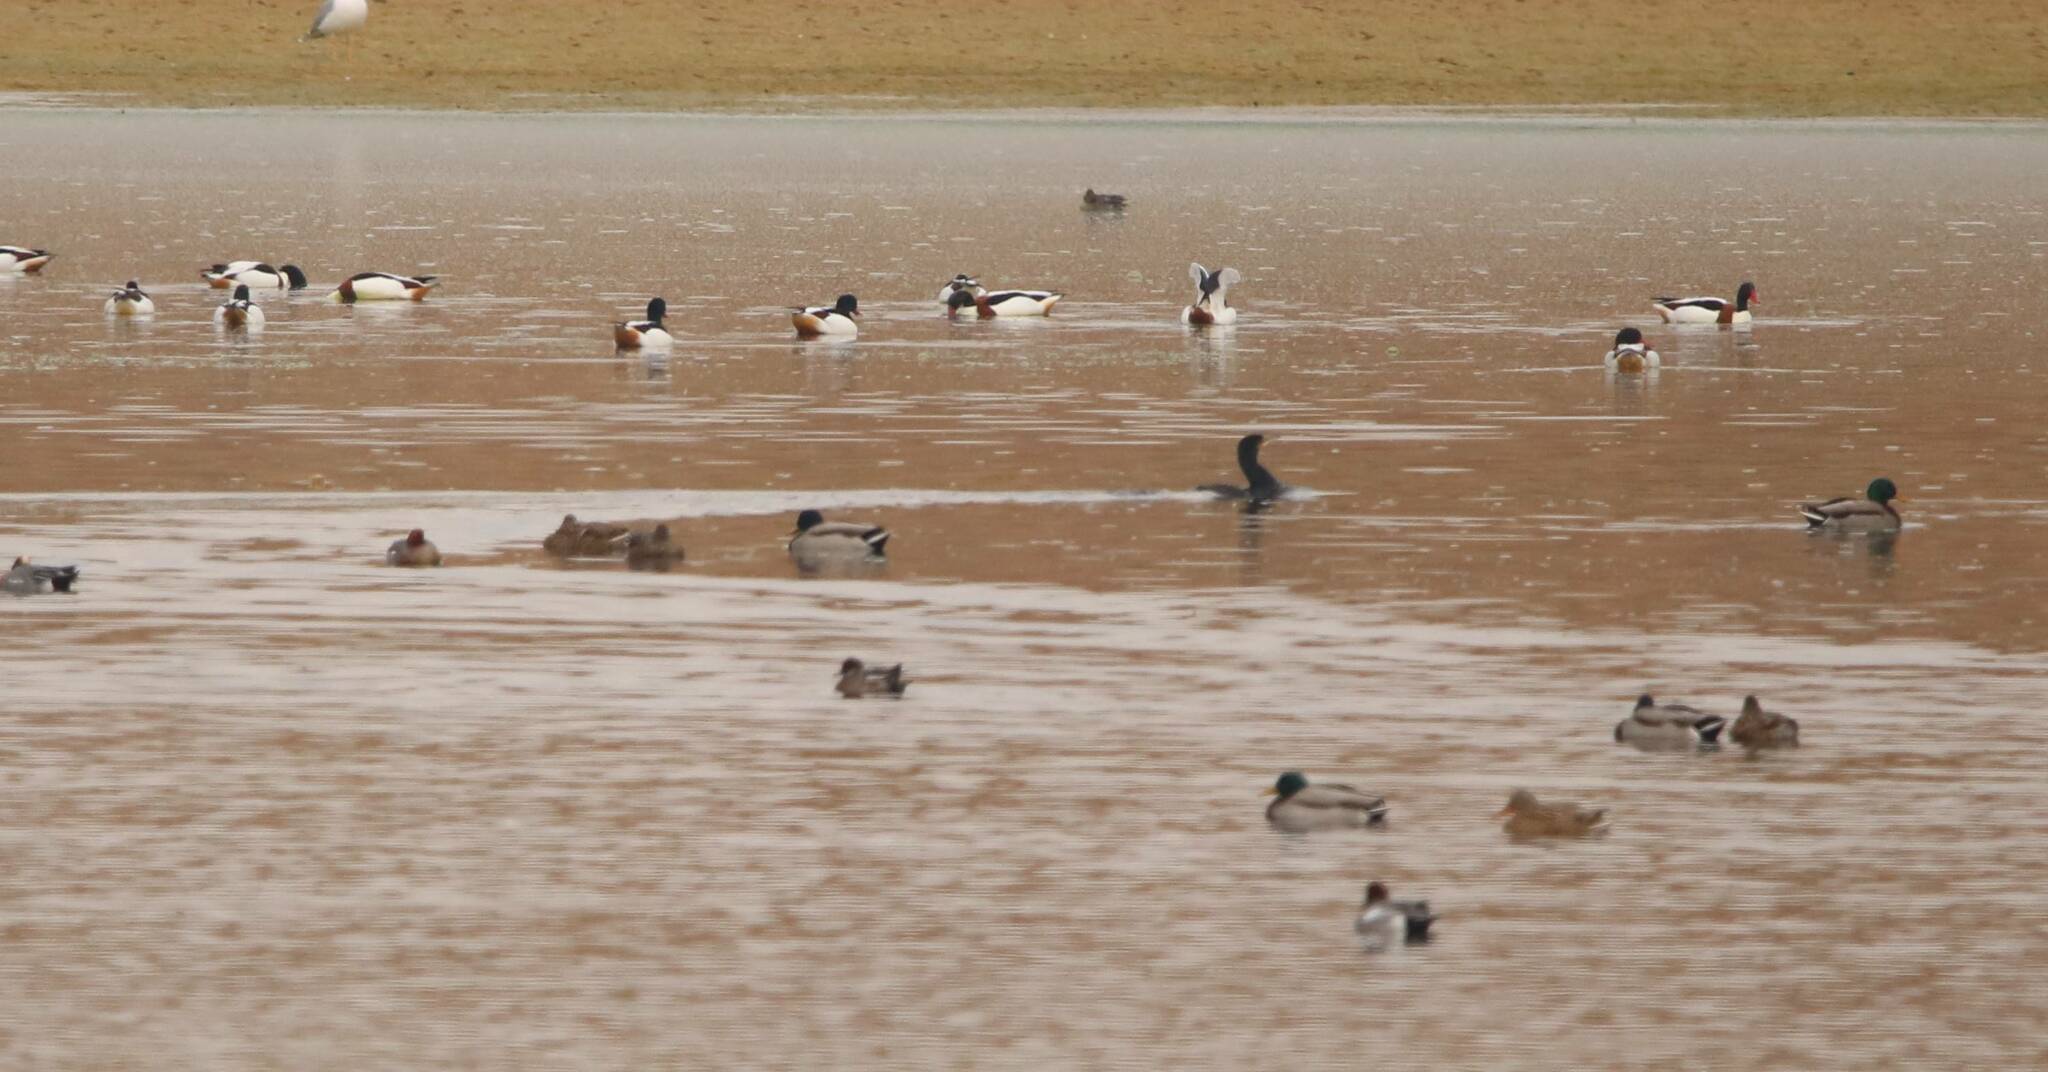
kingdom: Animalia
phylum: Chordata
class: Aves
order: Anseriformes
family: Anatidae
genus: Tadorna
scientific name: Tadorna tadorna
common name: Common shelduck
